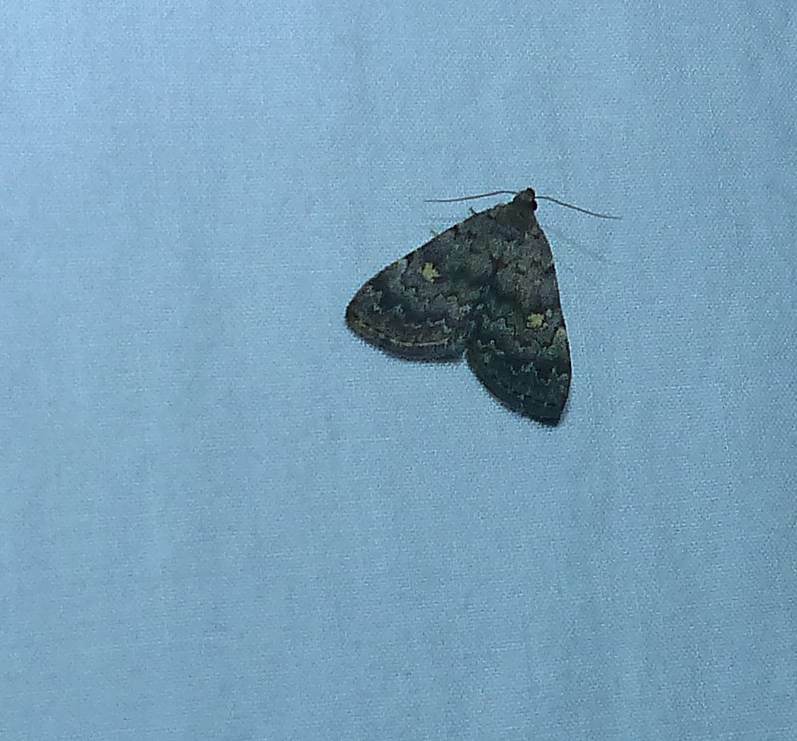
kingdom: Animalia
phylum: Arthropoda
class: Insecta
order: Lepidoptera
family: Erebidae
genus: Idia
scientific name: Idia aemula
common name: Common idia moth
